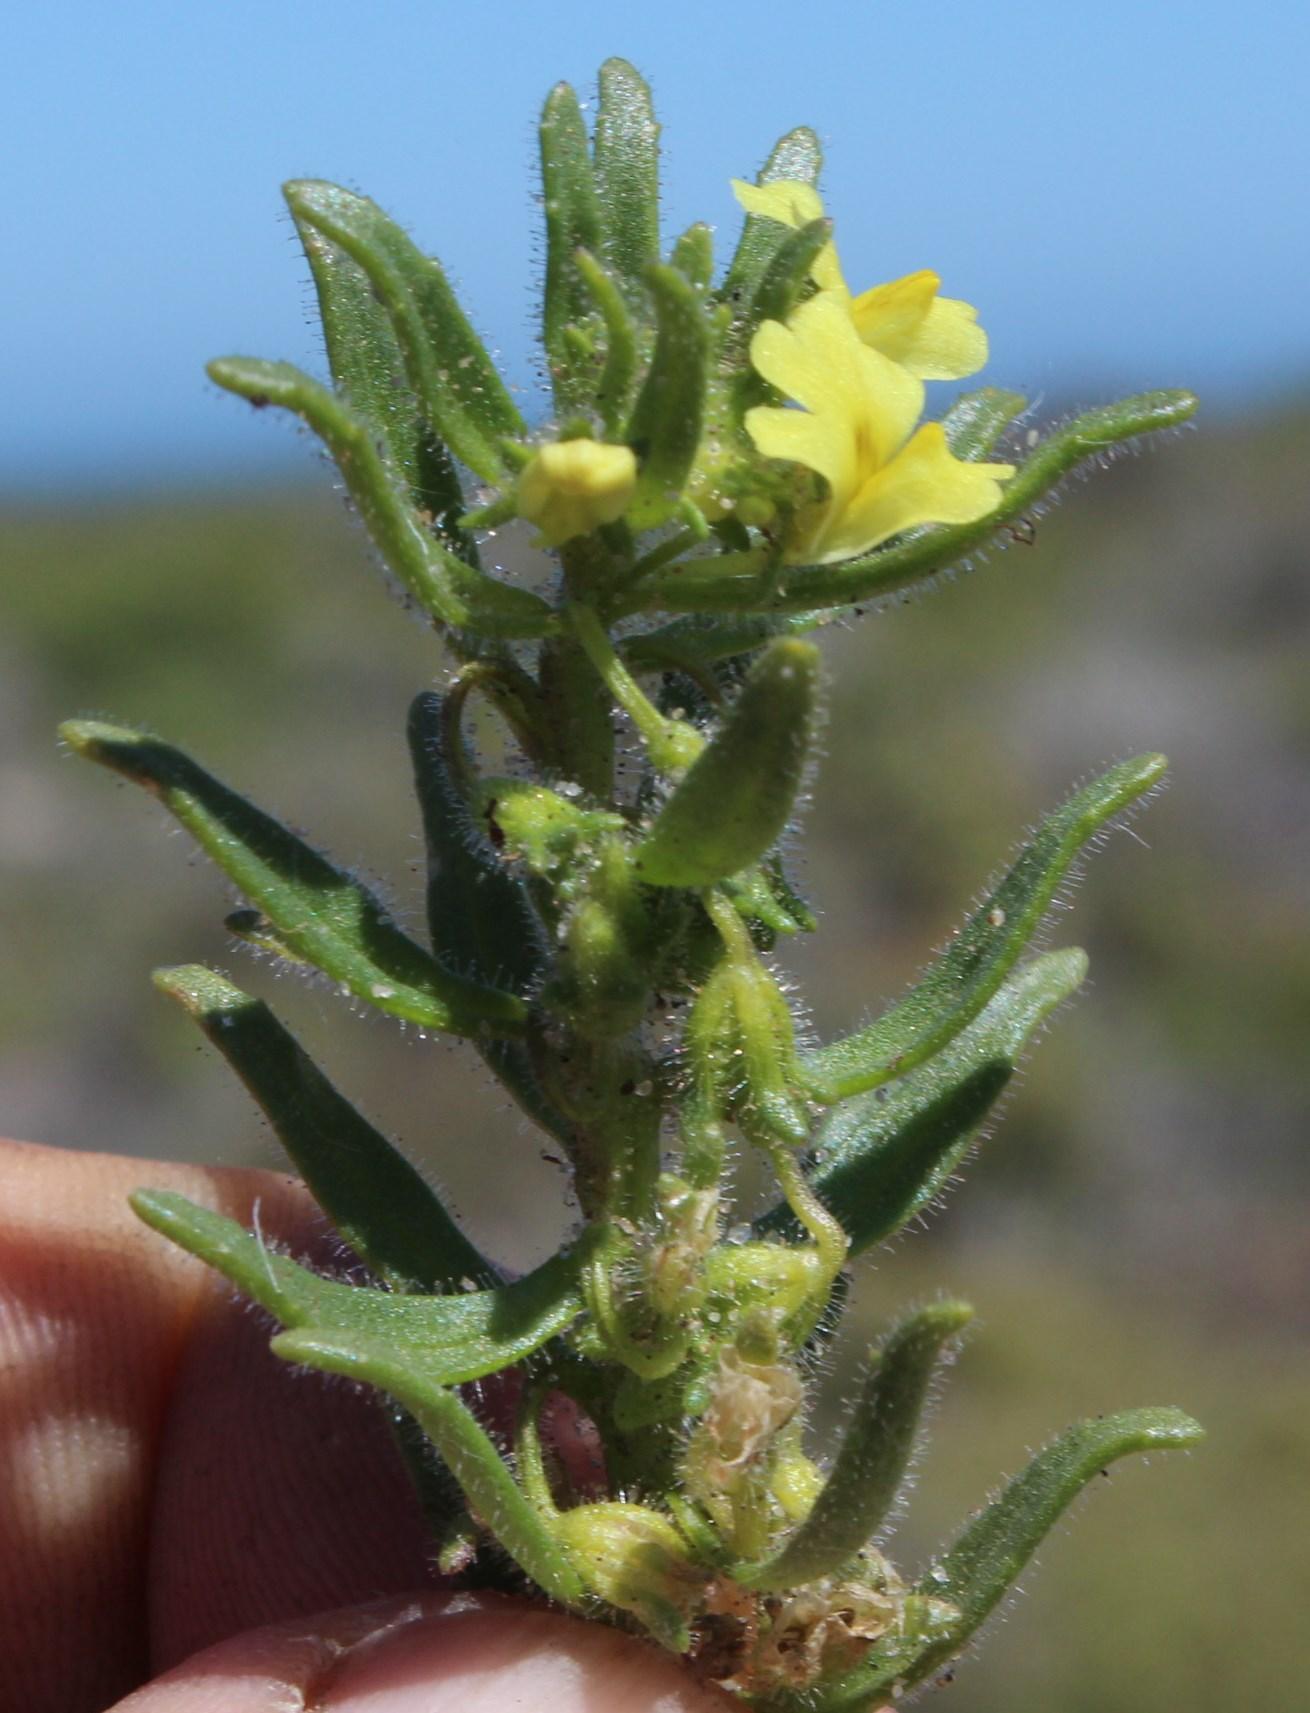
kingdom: Plantae
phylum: Tracheophyta
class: Magnoliopsida
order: Lamiales
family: Scrophulariaceae
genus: Nemesia
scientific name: Nemesia arenifera
